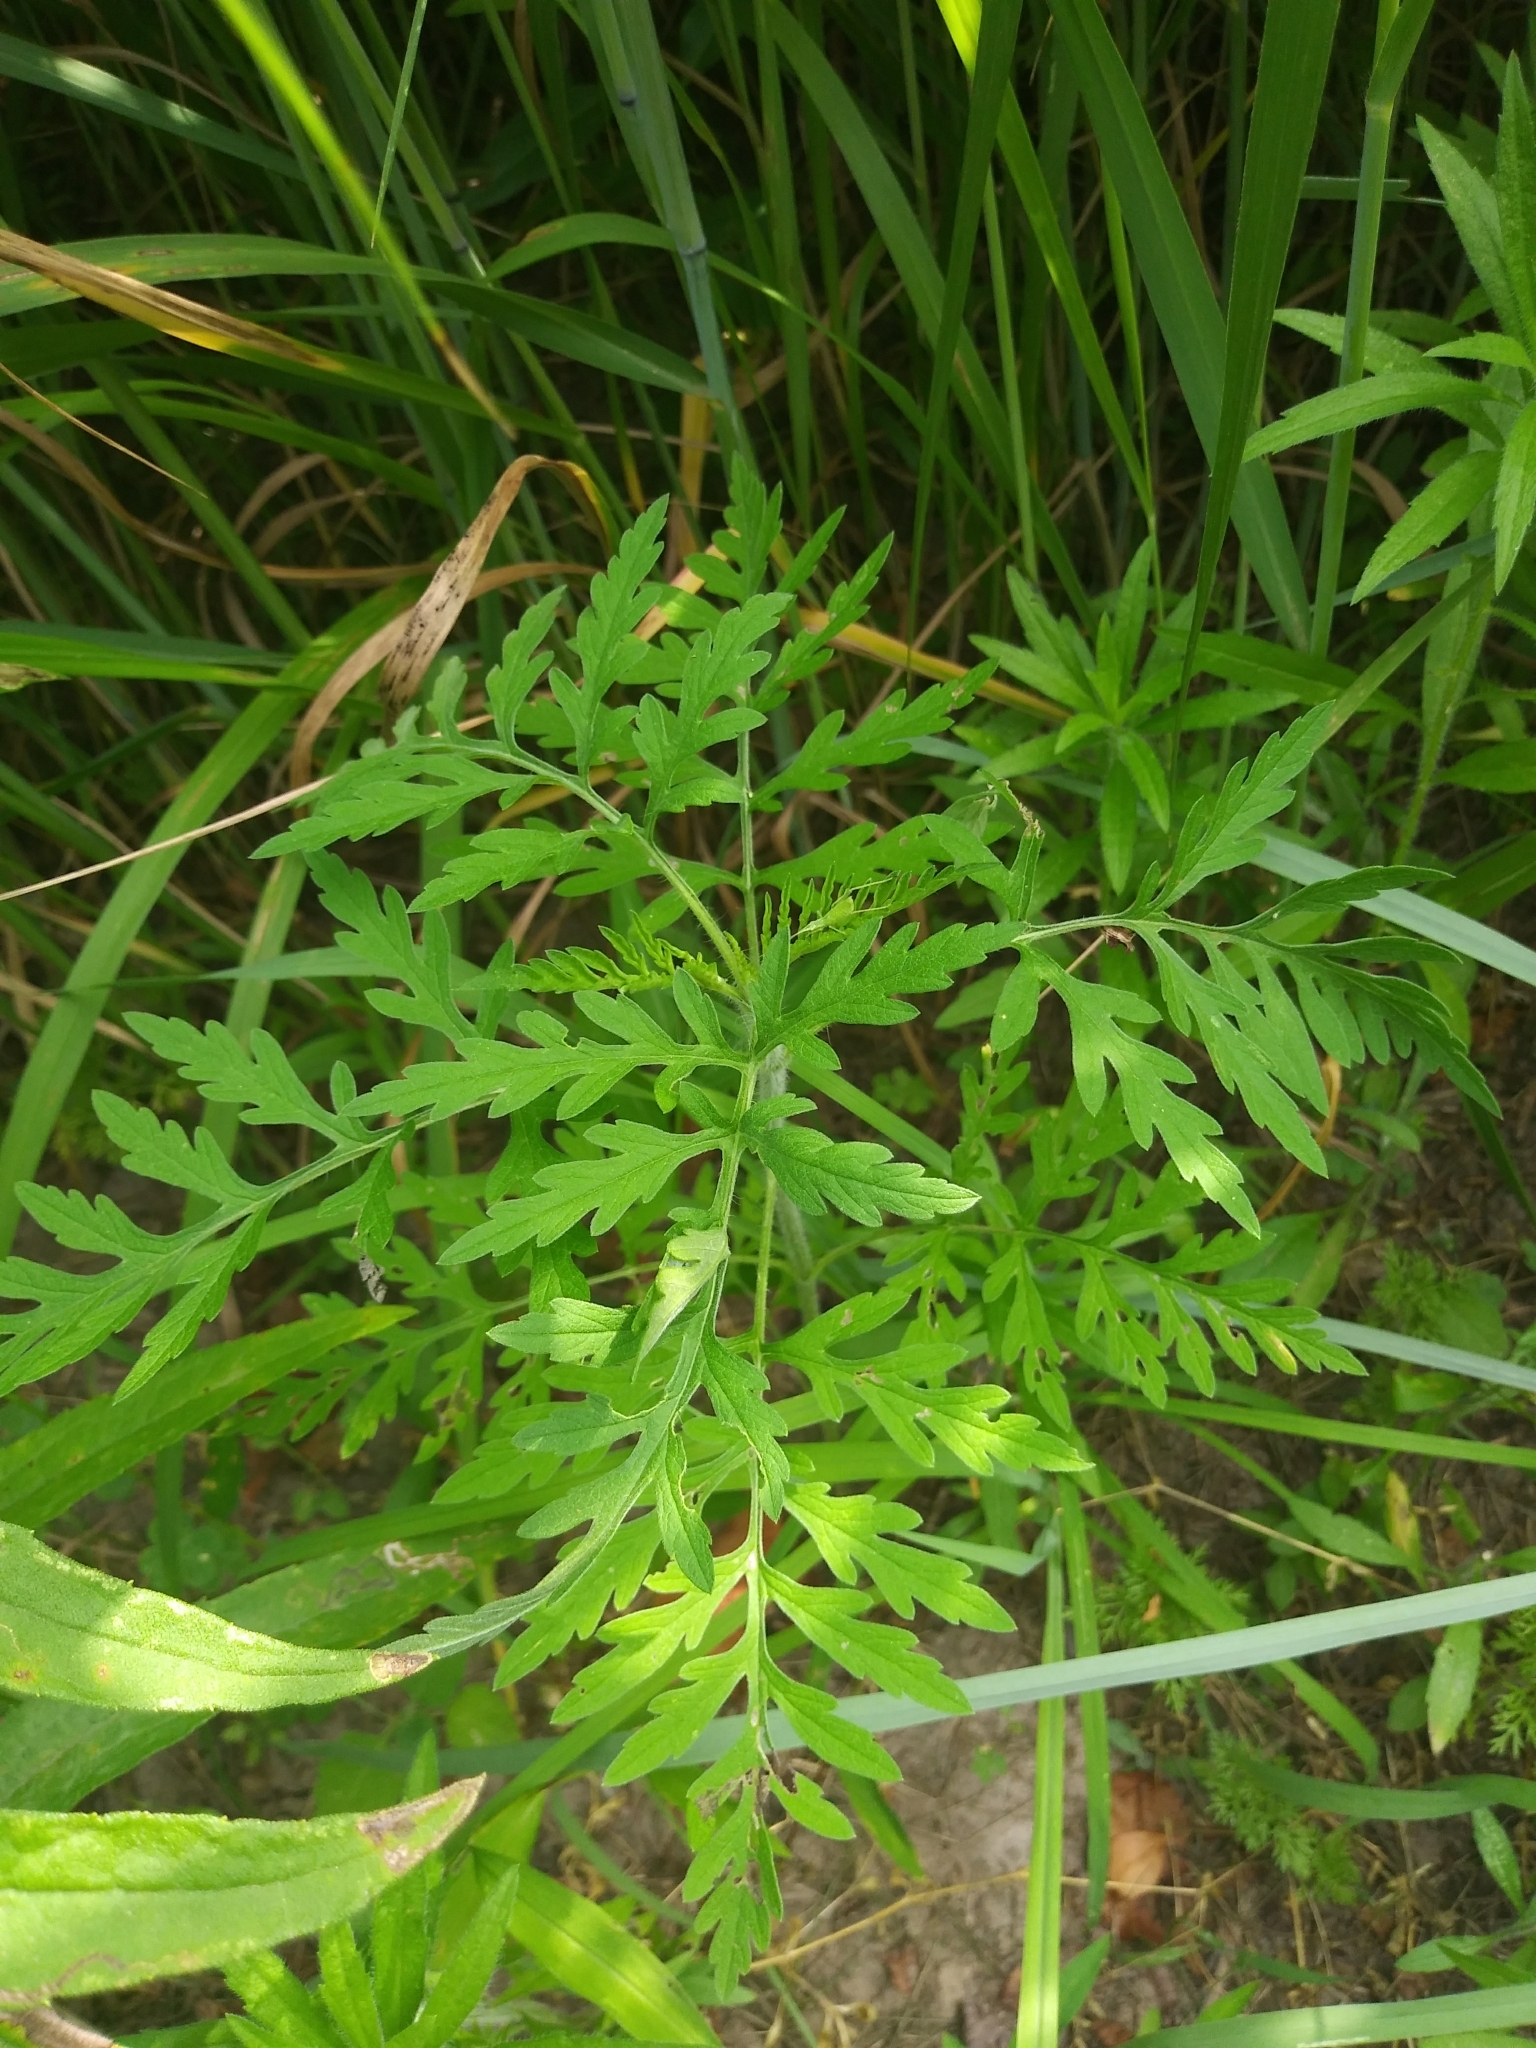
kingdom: Plantae
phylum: Tracheophyta
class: Magnoliopsida
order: Asterales
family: Asteraceae
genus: Ambrosia
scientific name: Ambrosia artemisiifolia
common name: Annual ragweed
